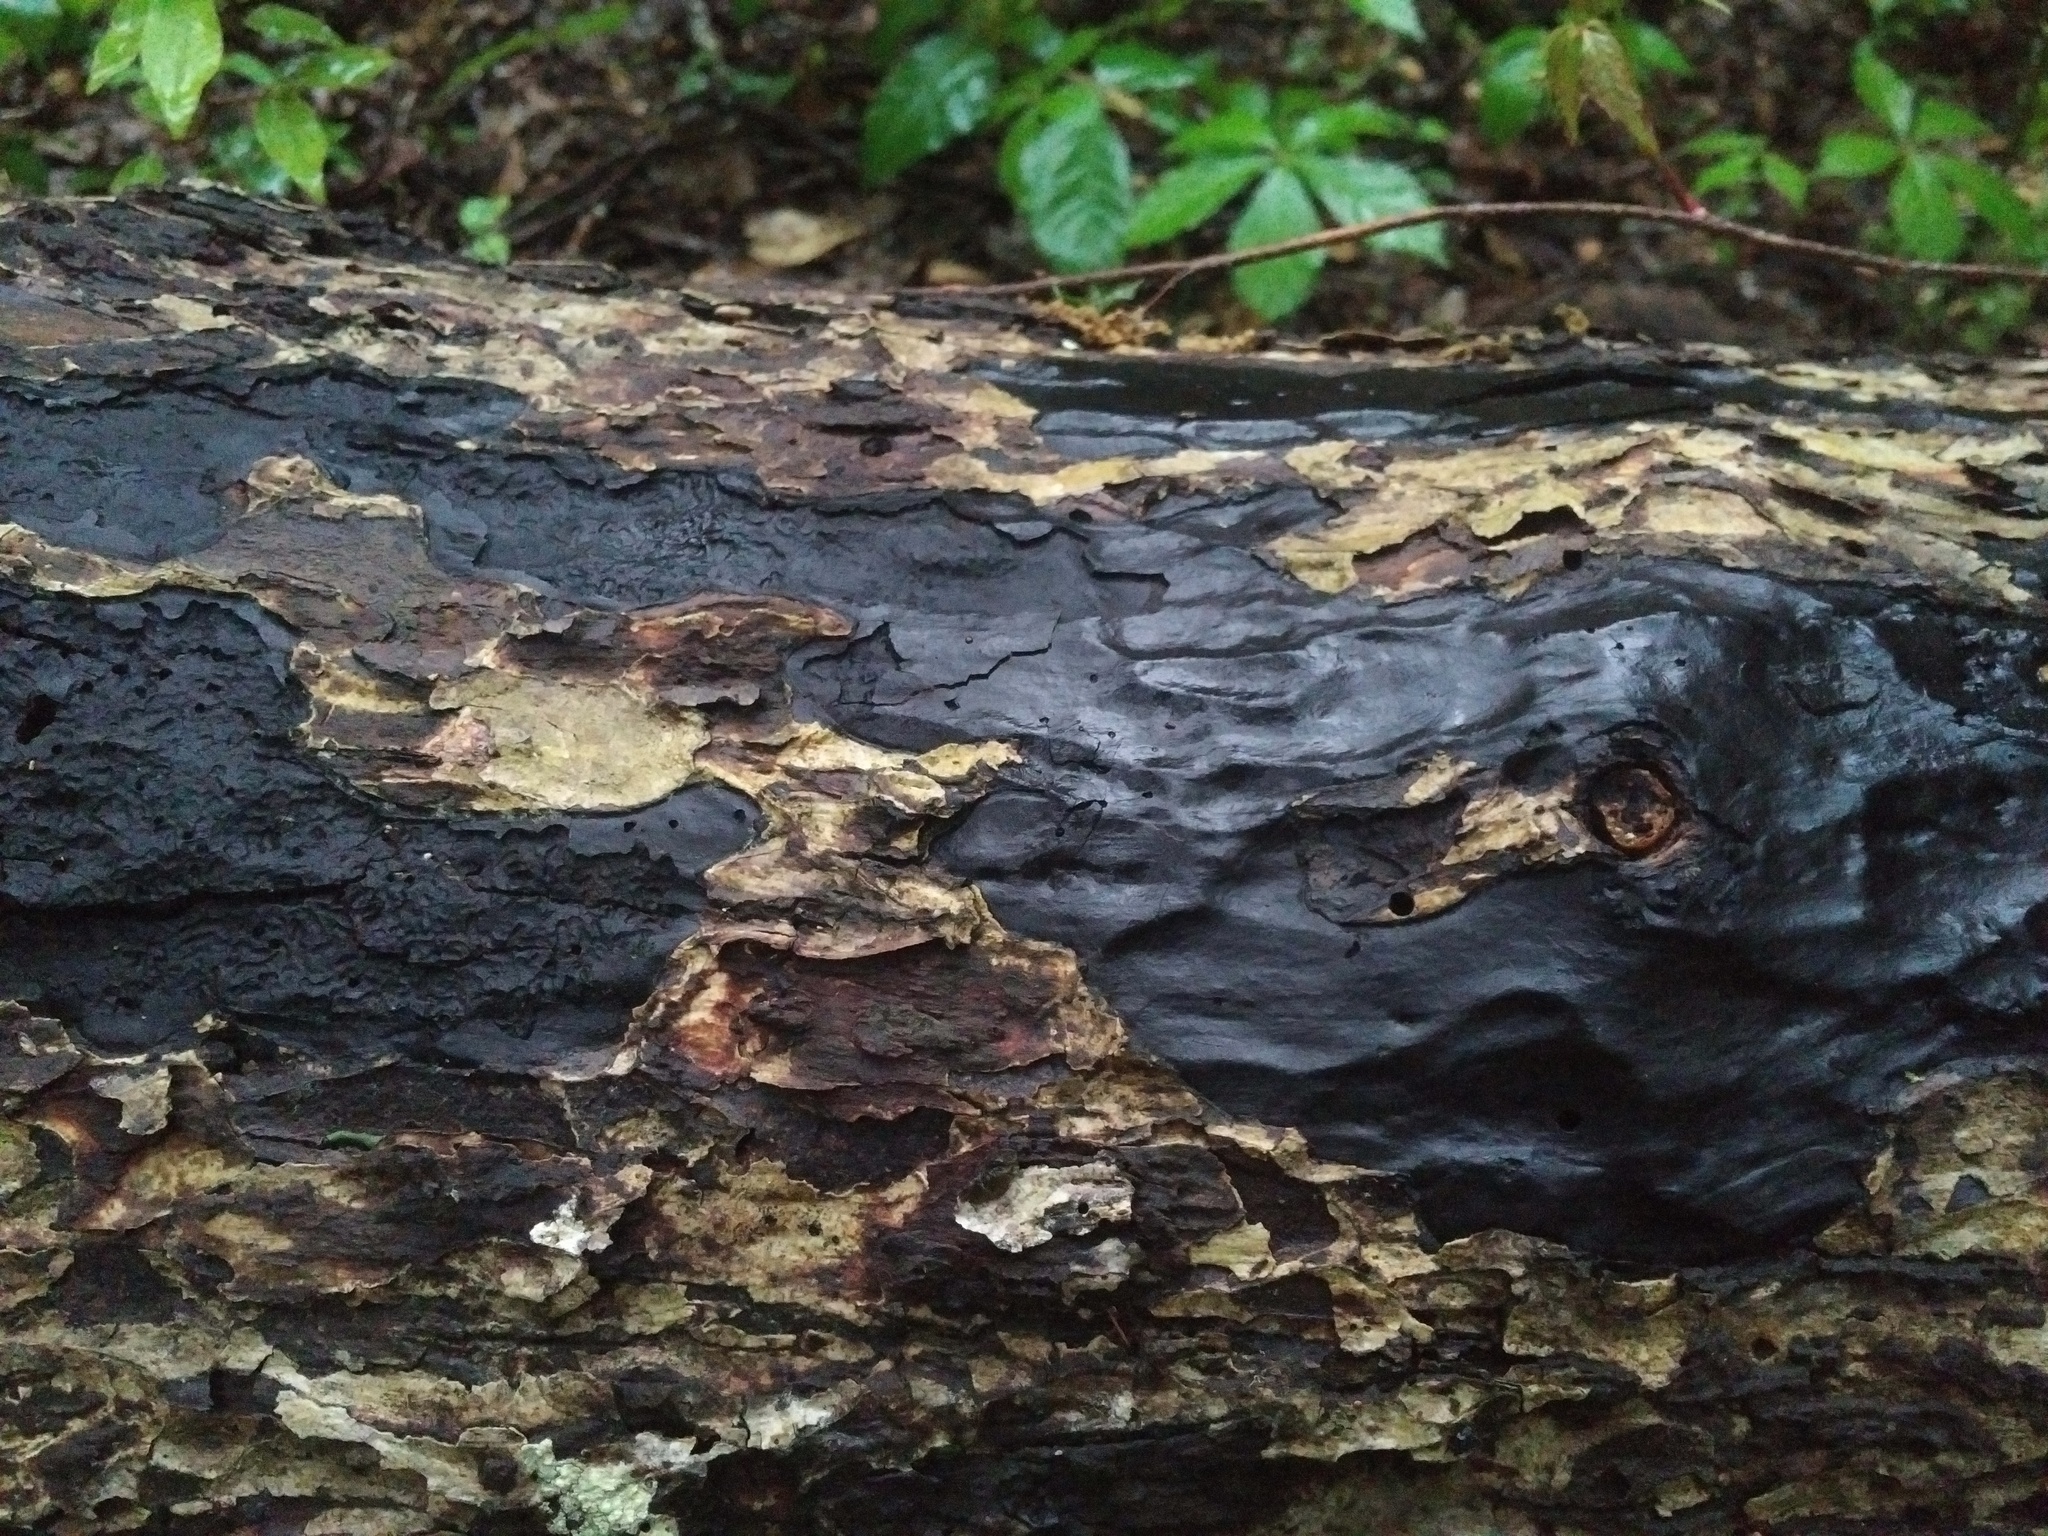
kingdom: Fungi
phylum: Ascomycota
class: Sordariomycetes
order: Xylariales
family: Graphostromataceae
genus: Biscogniauxia
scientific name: Biscogniauxia atropunctata
